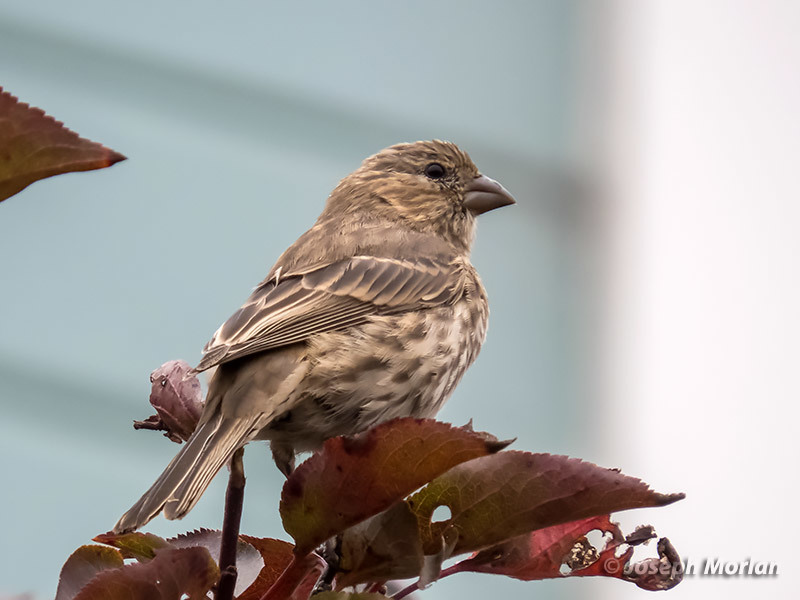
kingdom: Animalia
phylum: Chordata
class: Aves
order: Passeriformes
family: Fringillidae
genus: Haemorhous
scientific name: Haemorhous mexicanus
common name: House finch
